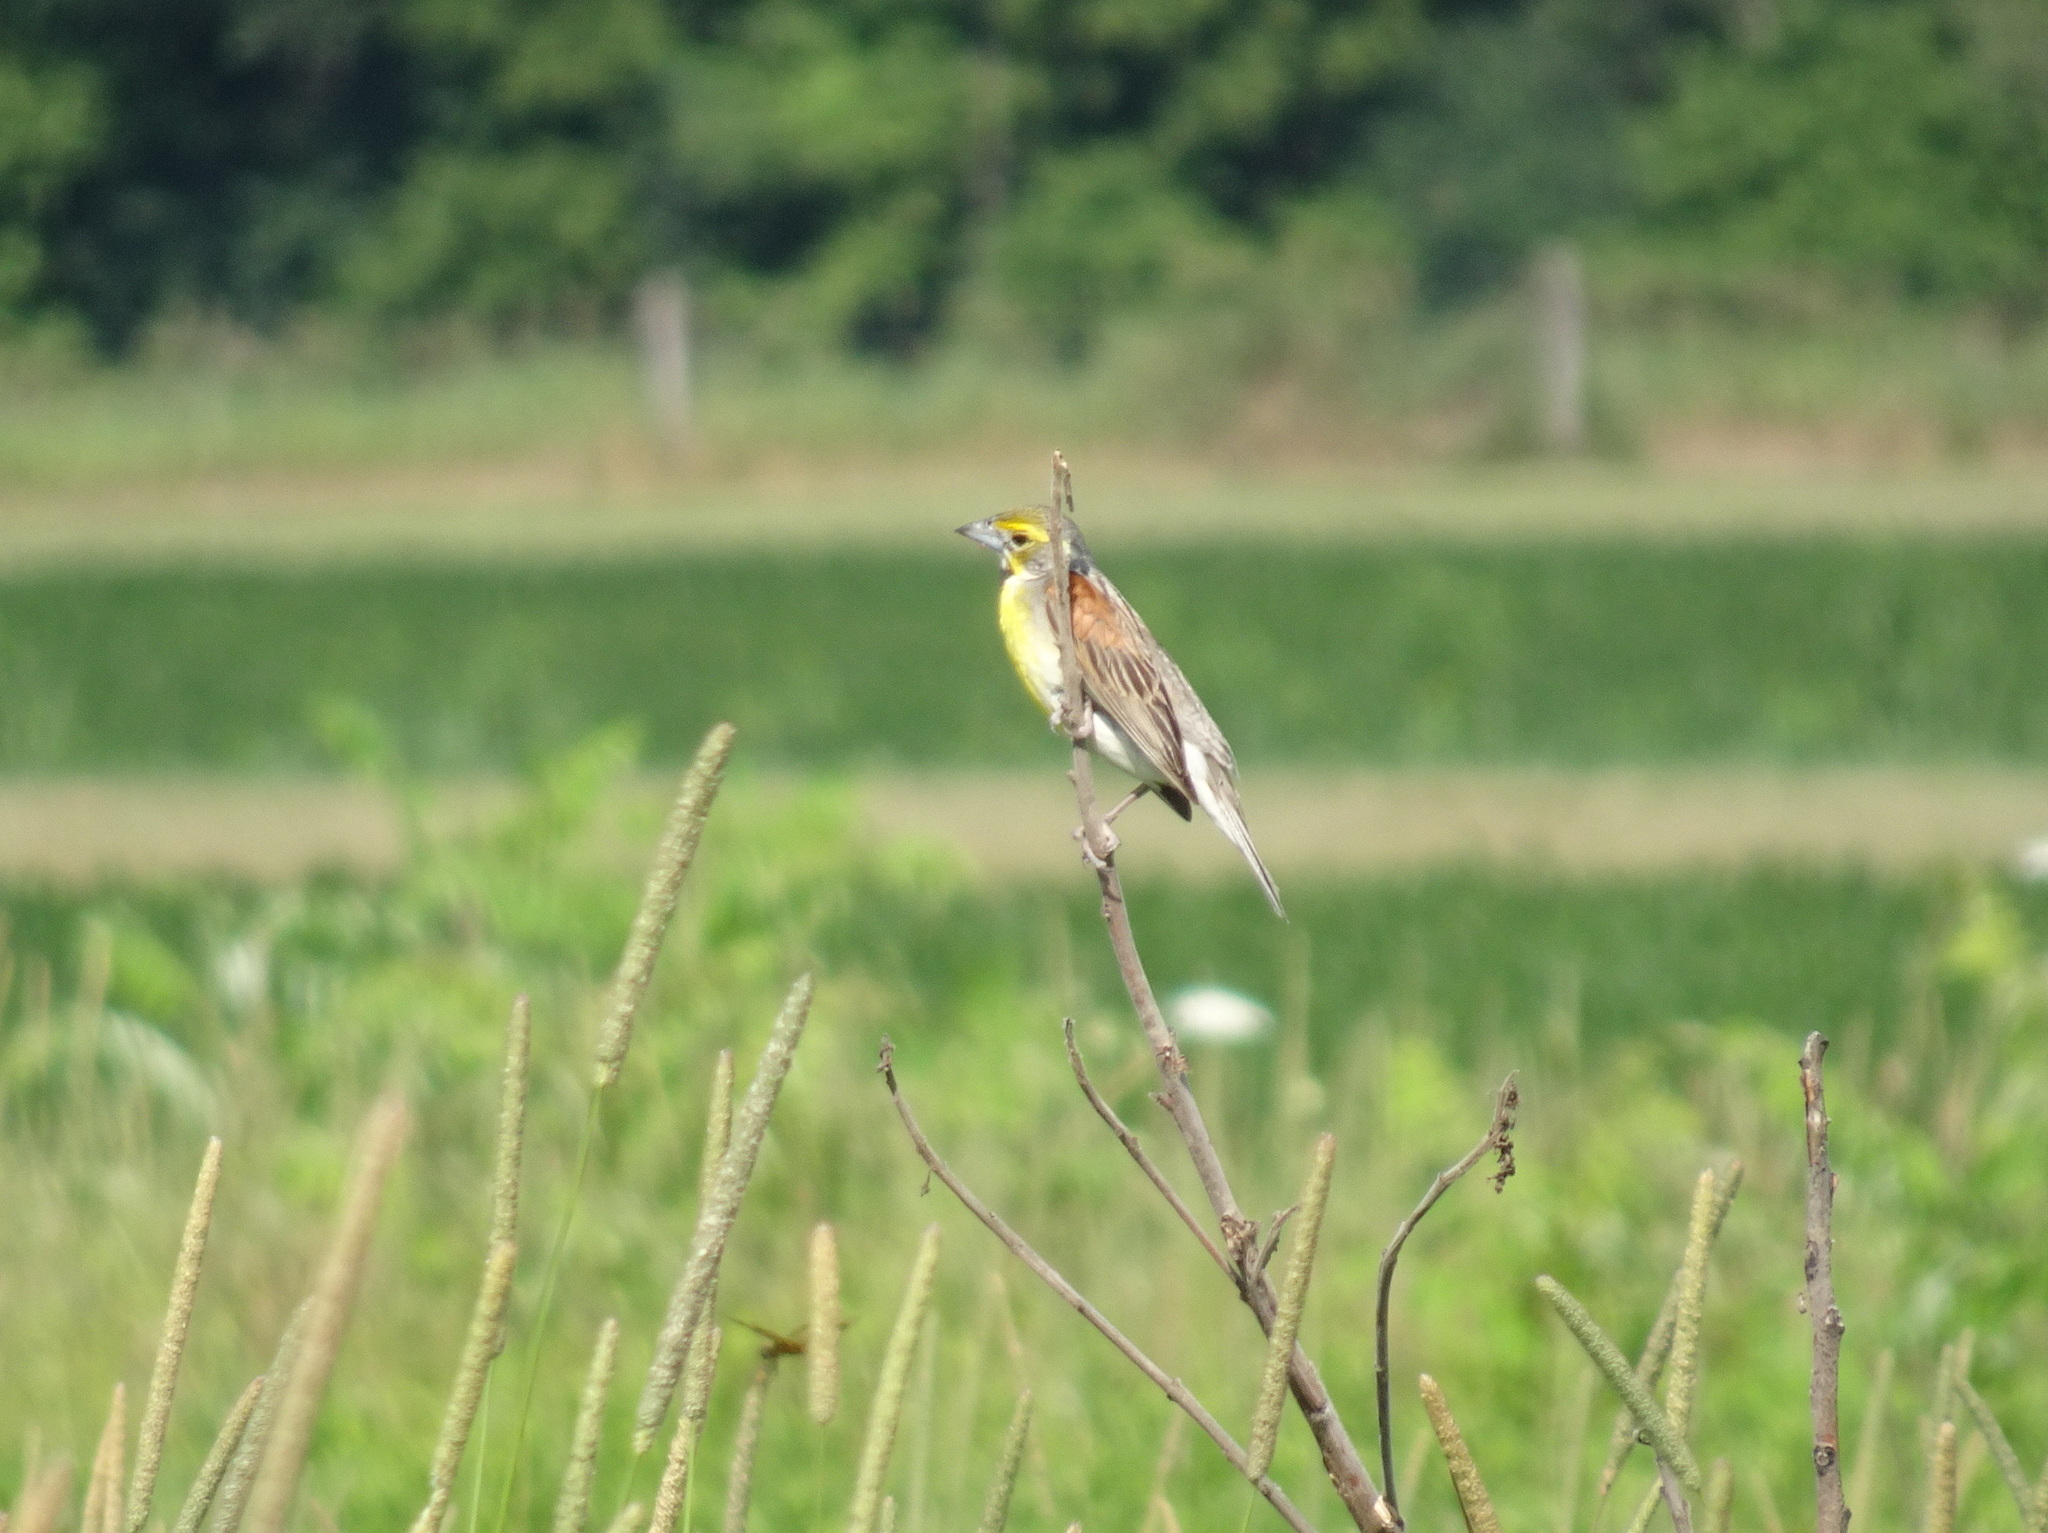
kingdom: Animalia
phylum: Chordata
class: Aves
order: Passeriformes
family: Cardinalidae
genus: Spiza
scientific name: Spiza americana
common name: Dickcissel
